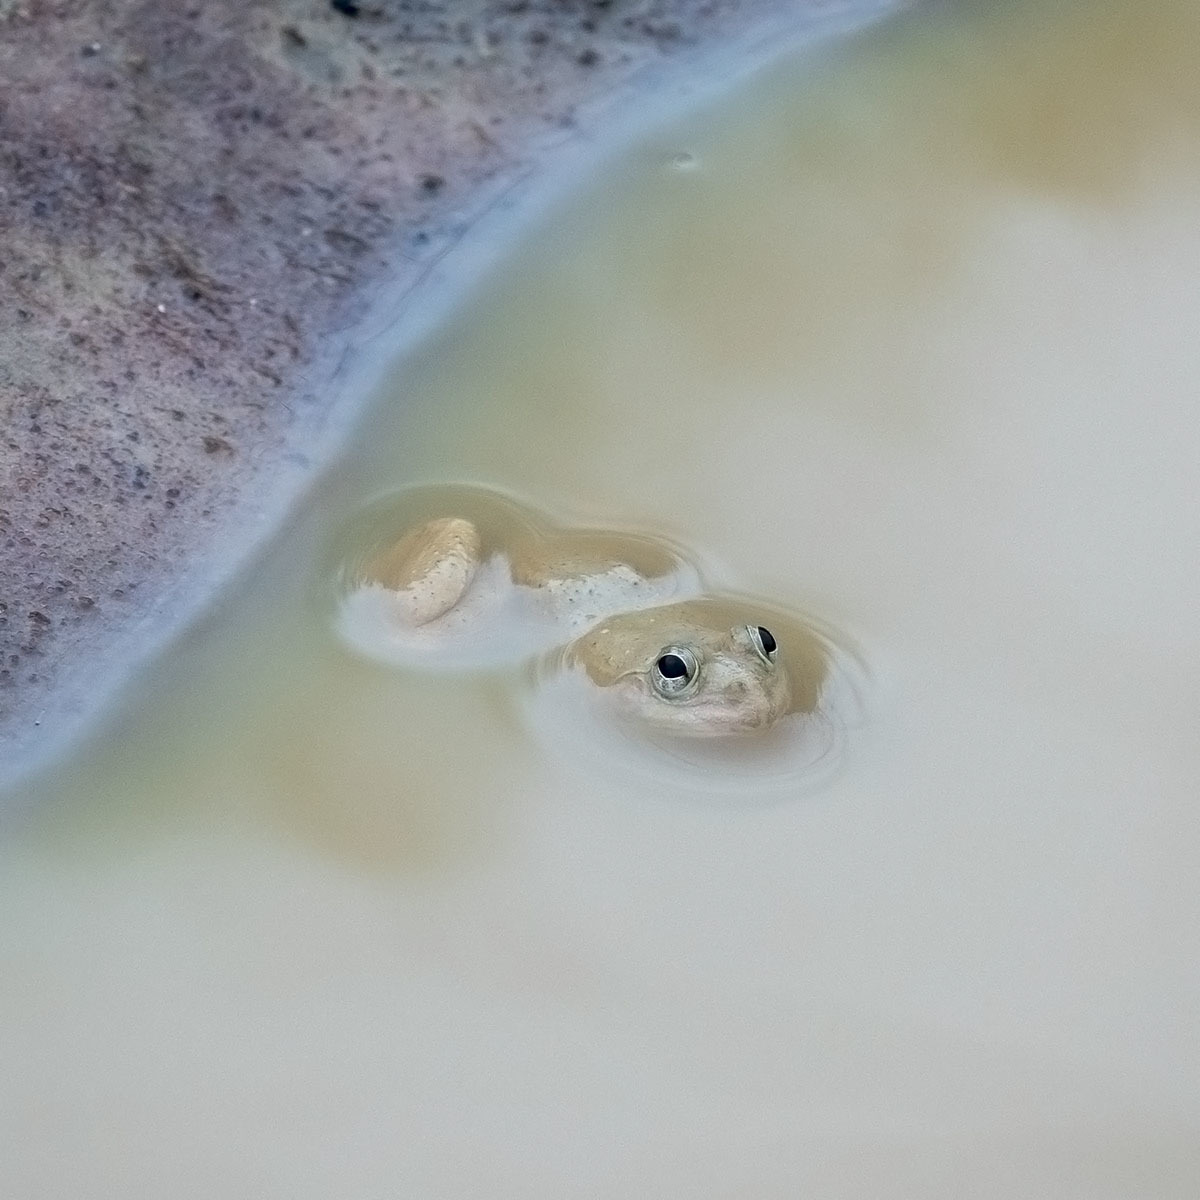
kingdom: Animalia
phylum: Chordata
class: Amphibia
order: Anura
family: Dicroglossidae
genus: Euphlyctis
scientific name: Euphlyctis cyanophlyctis
